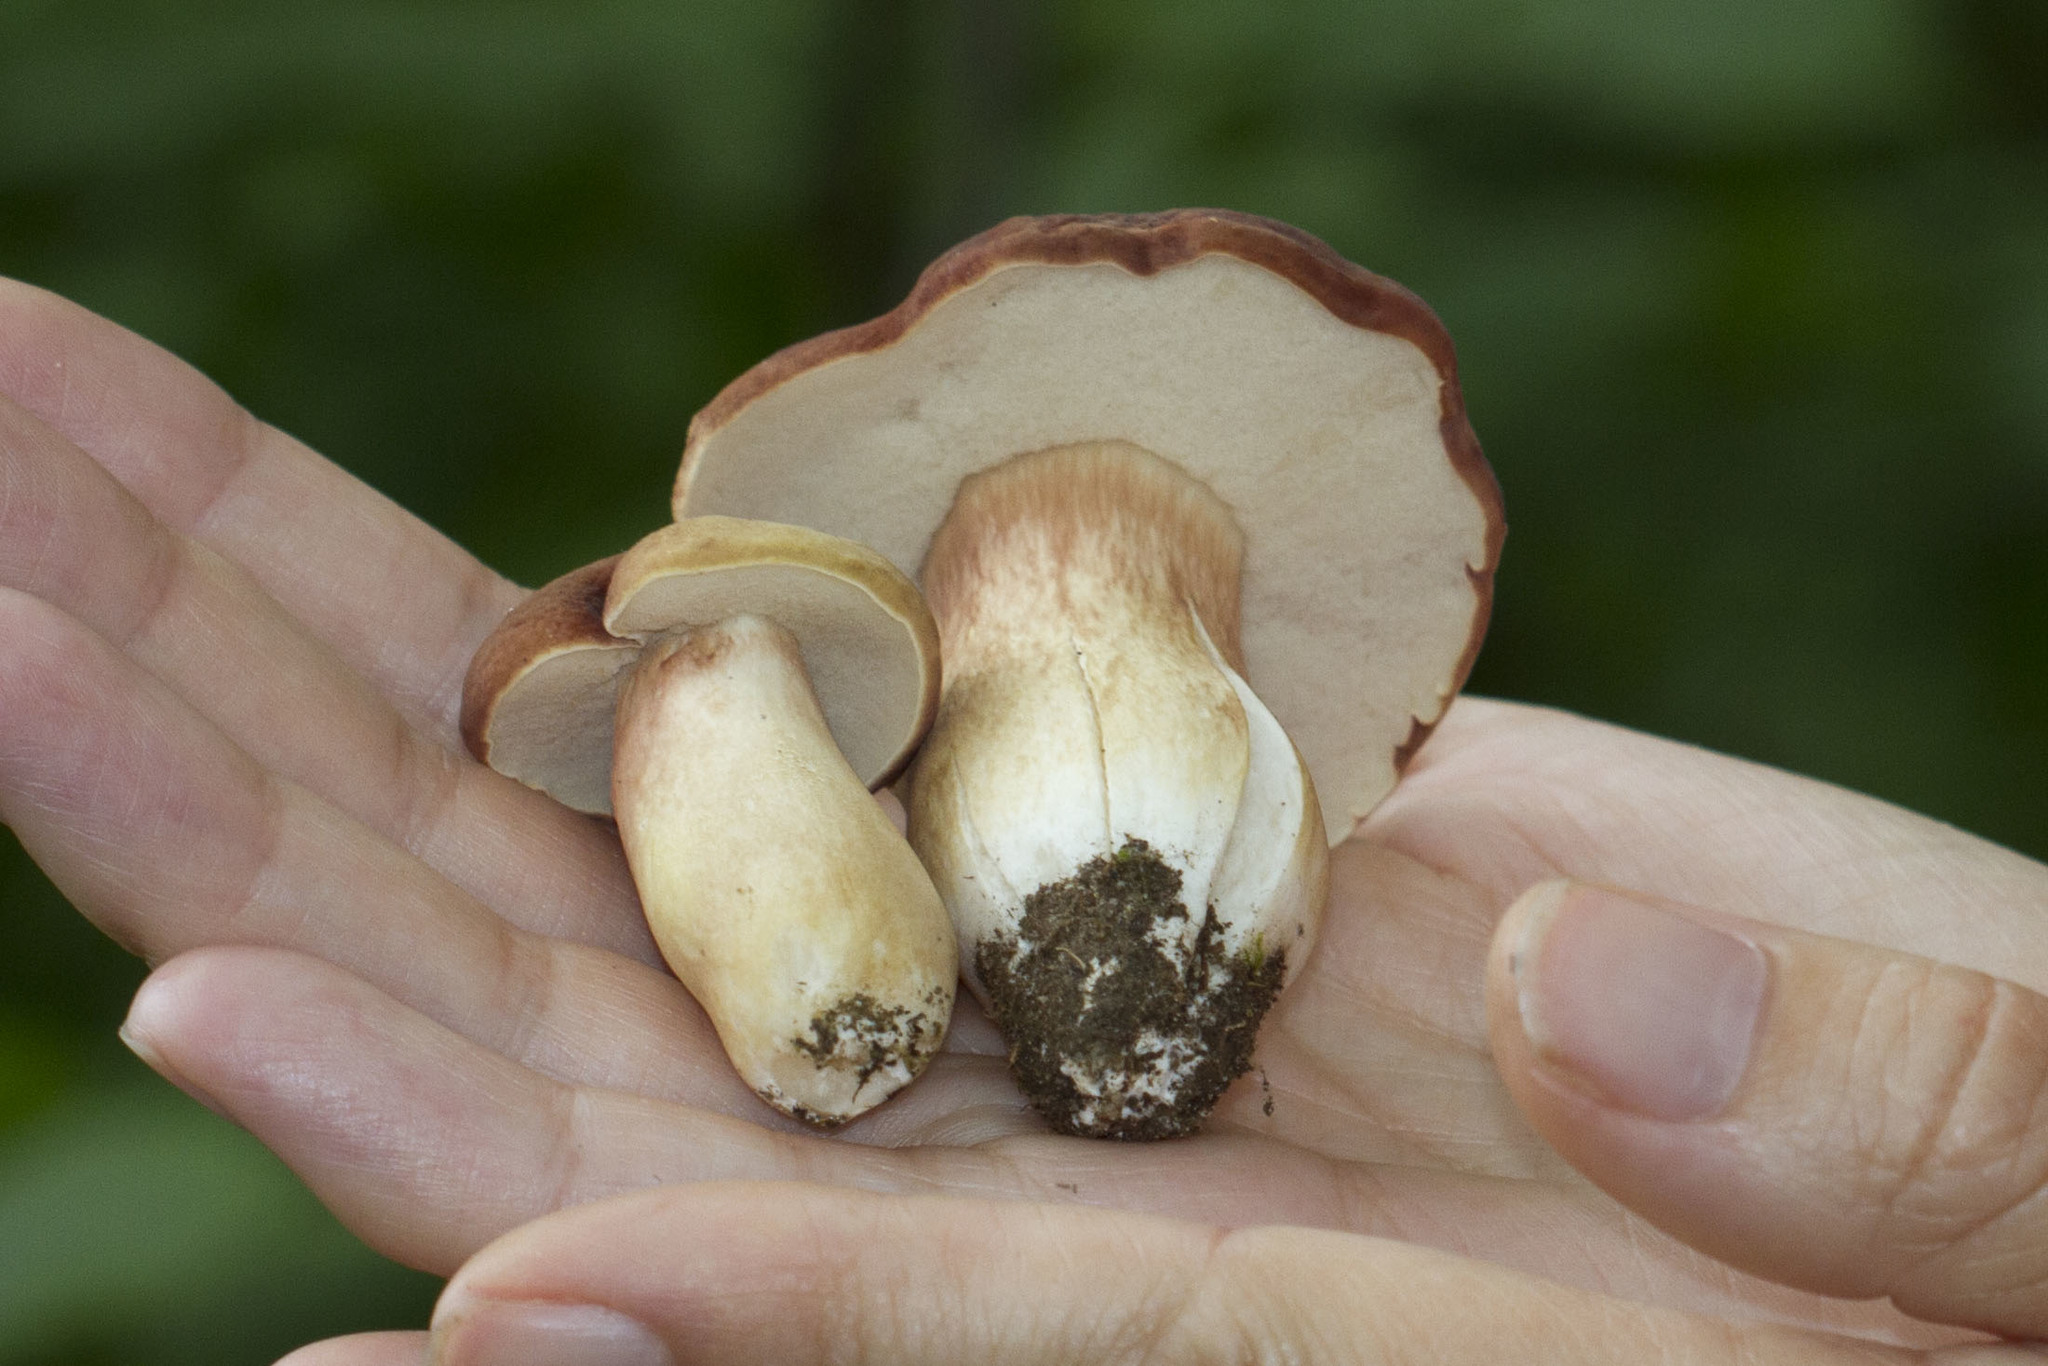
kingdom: Fungi
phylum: Basidiomycota
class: Agaricomycetes
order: Boletales
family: Boletaceae
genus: Xanthoconium
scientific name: Xanthoconium purpureum
